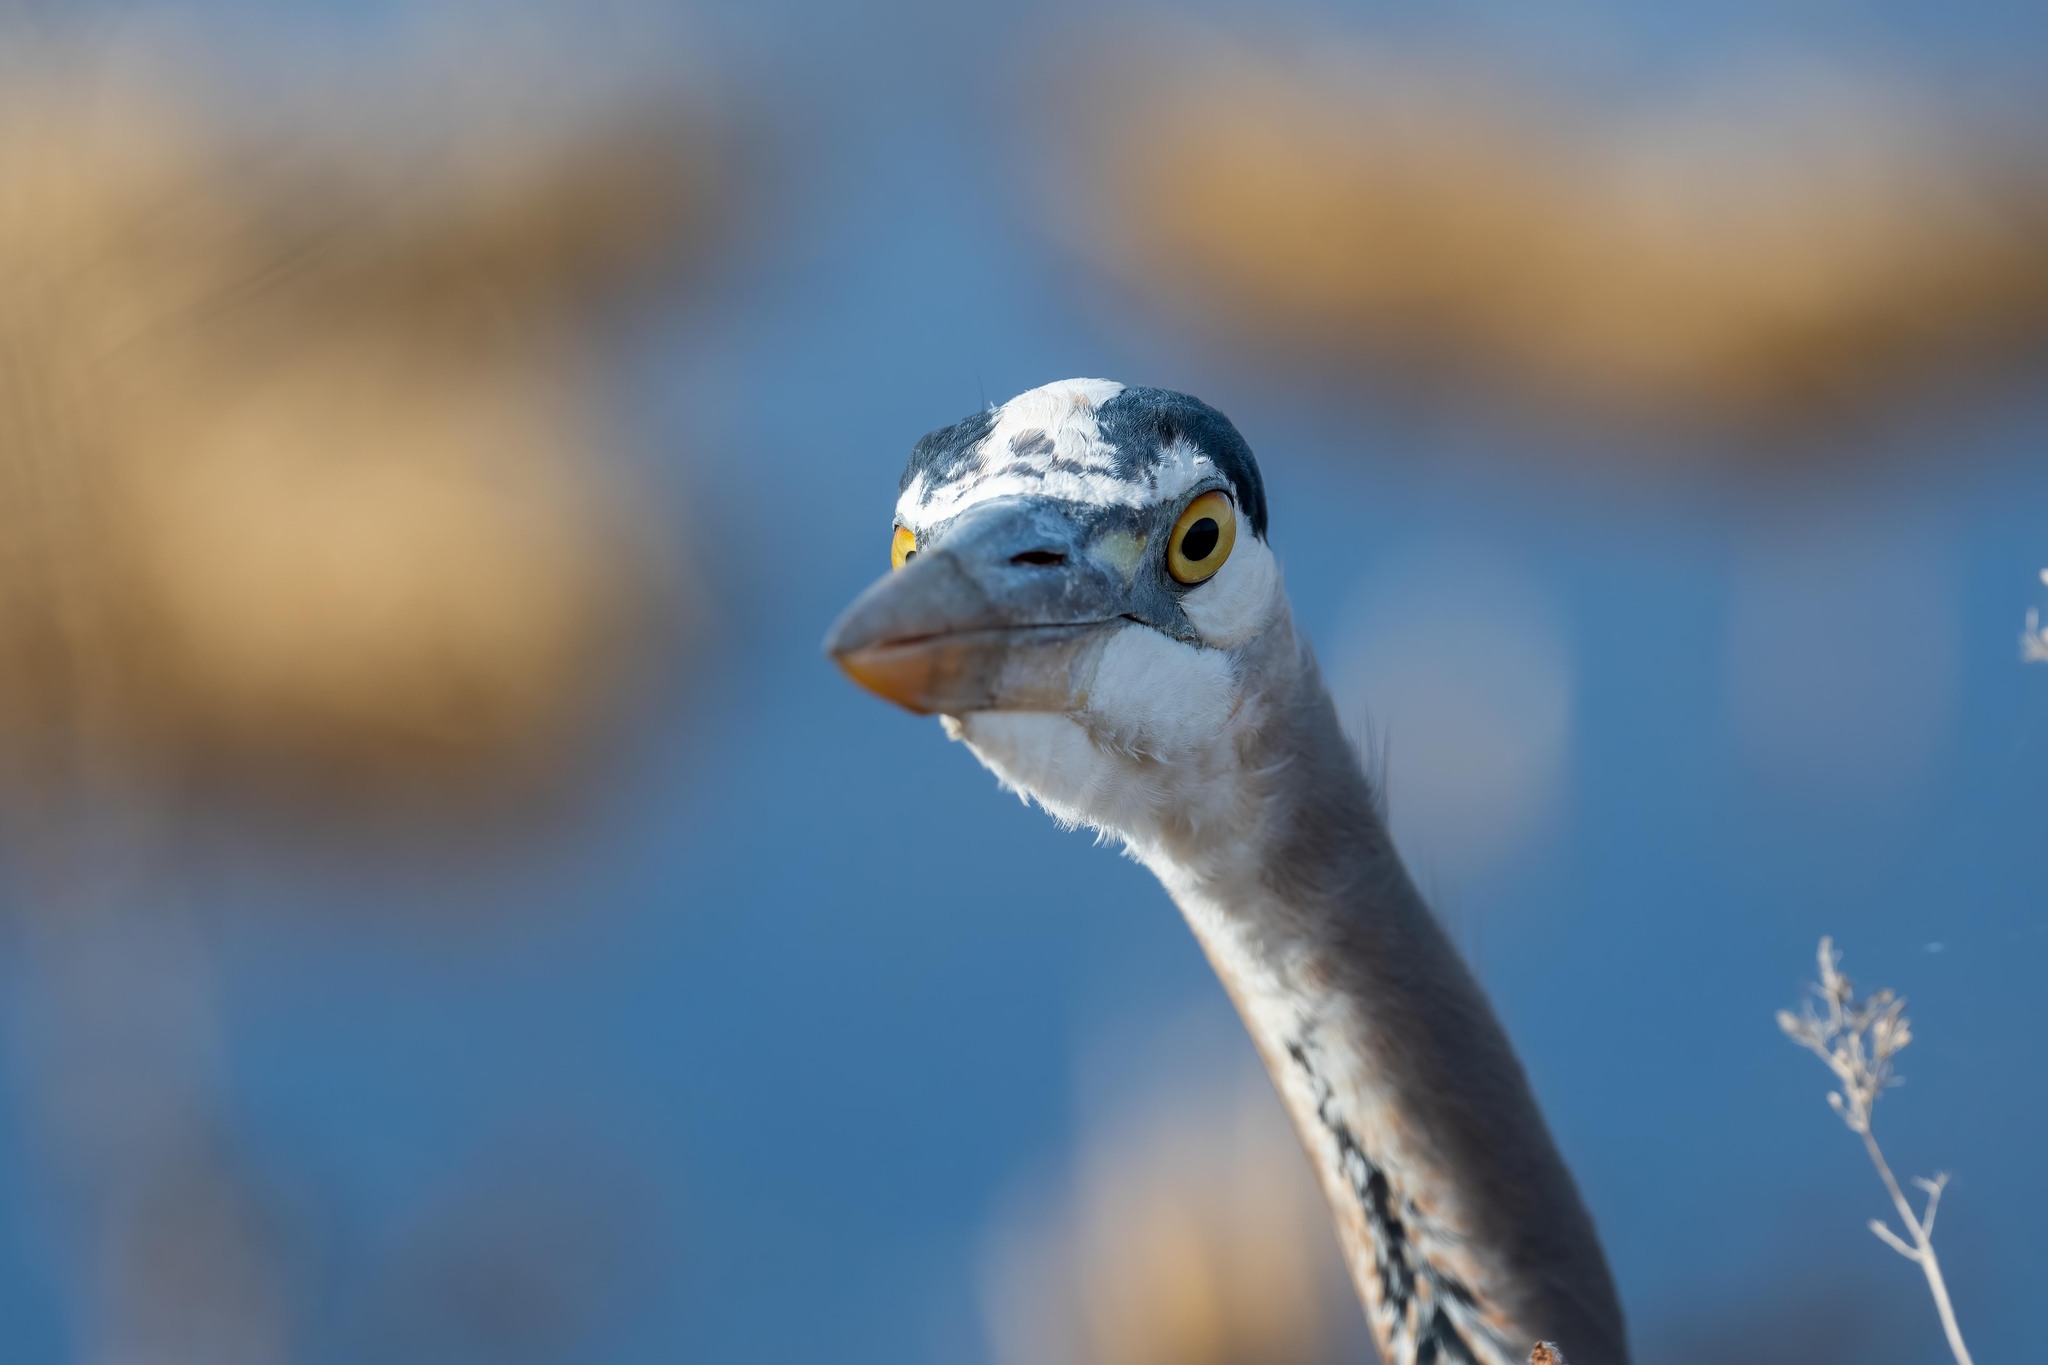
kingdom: Animalia
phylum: Chordata
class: Aves
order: Pelecaniformes
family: Ardeidae
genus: Ardea
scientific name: Ardea herodias
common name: Great blue heron
